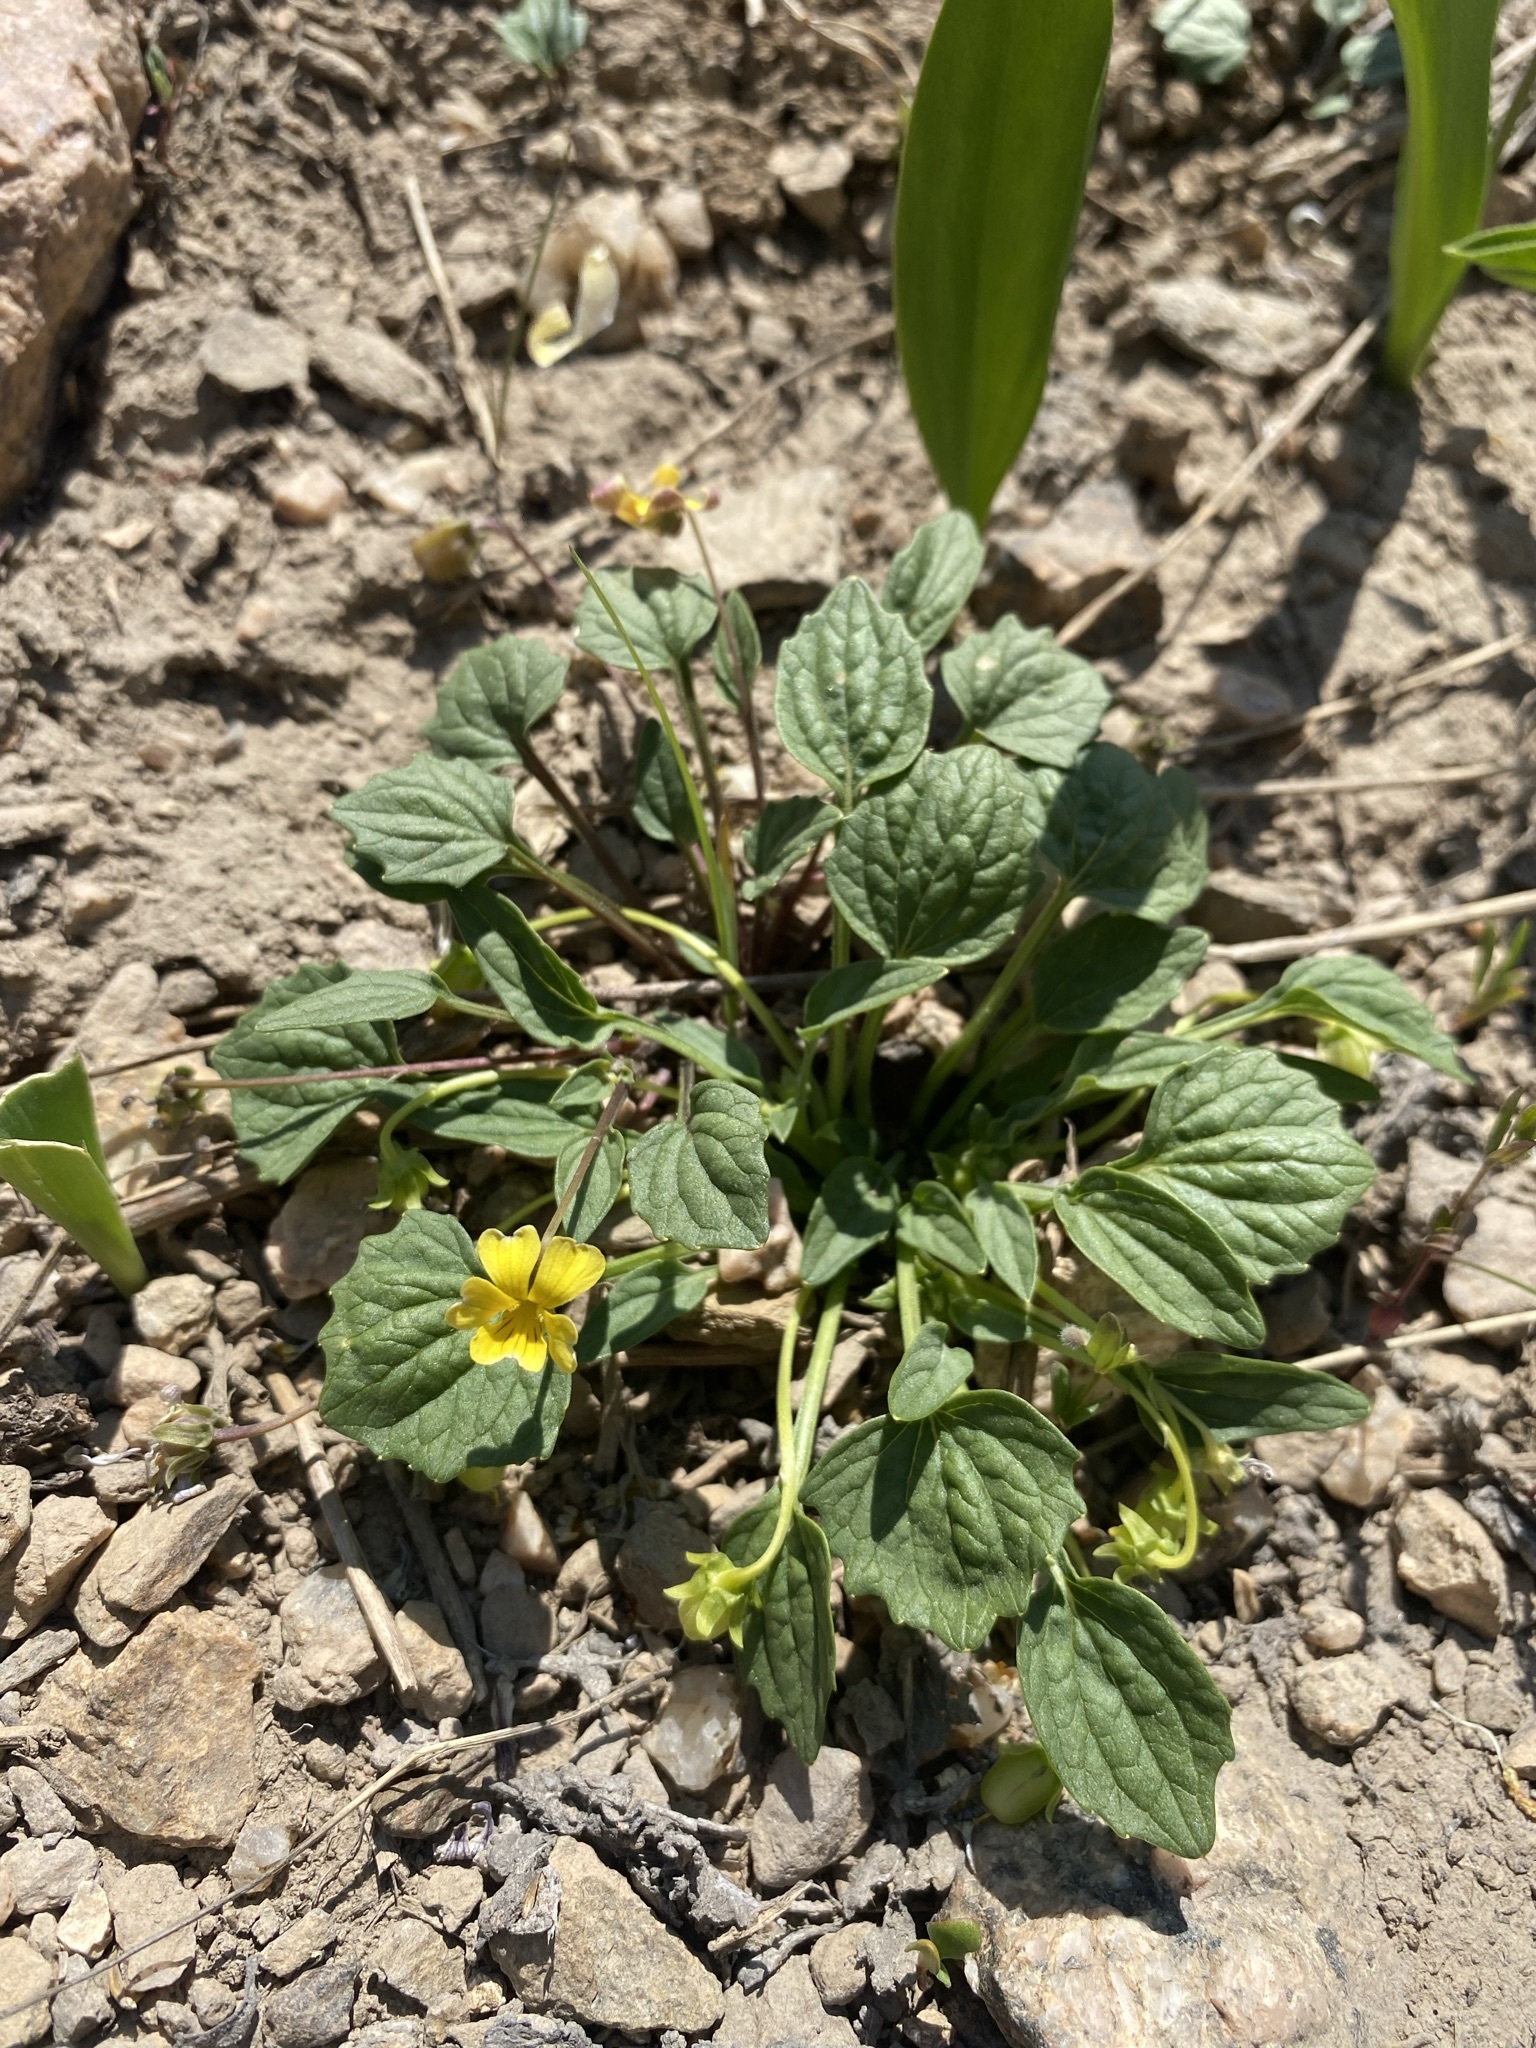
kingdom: Plantae
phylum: Tracheophyta
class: Magnoliopsida
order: Malpighiales
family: Violaceae
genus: Viola
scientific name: Viola purpurea
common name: Pine violet
